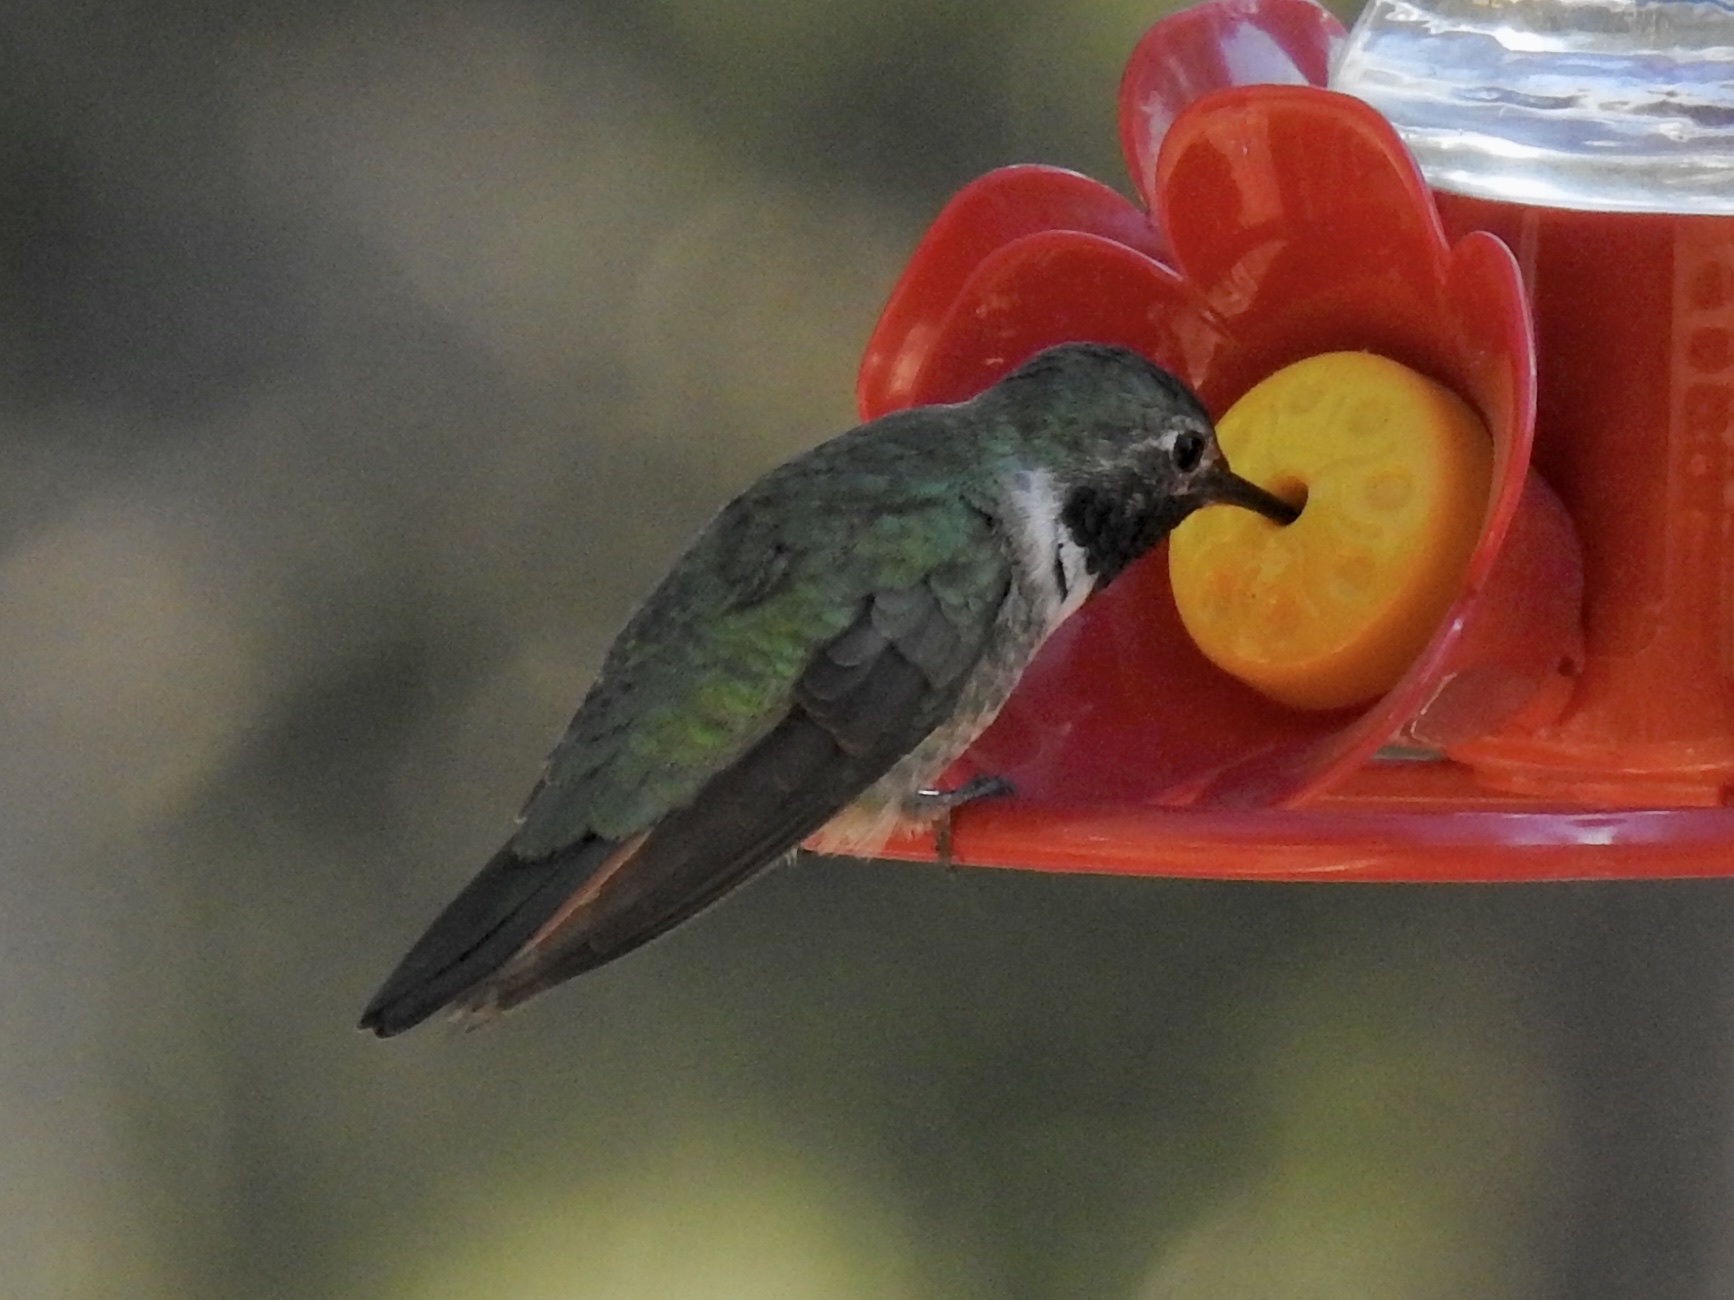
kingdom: Animalia
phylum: Chordata
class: Aves
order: Apodiformes
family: Trochilidae
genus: Selasphorus
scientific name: Selasphorus platycercus
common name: Broad-tailed hummingbird
